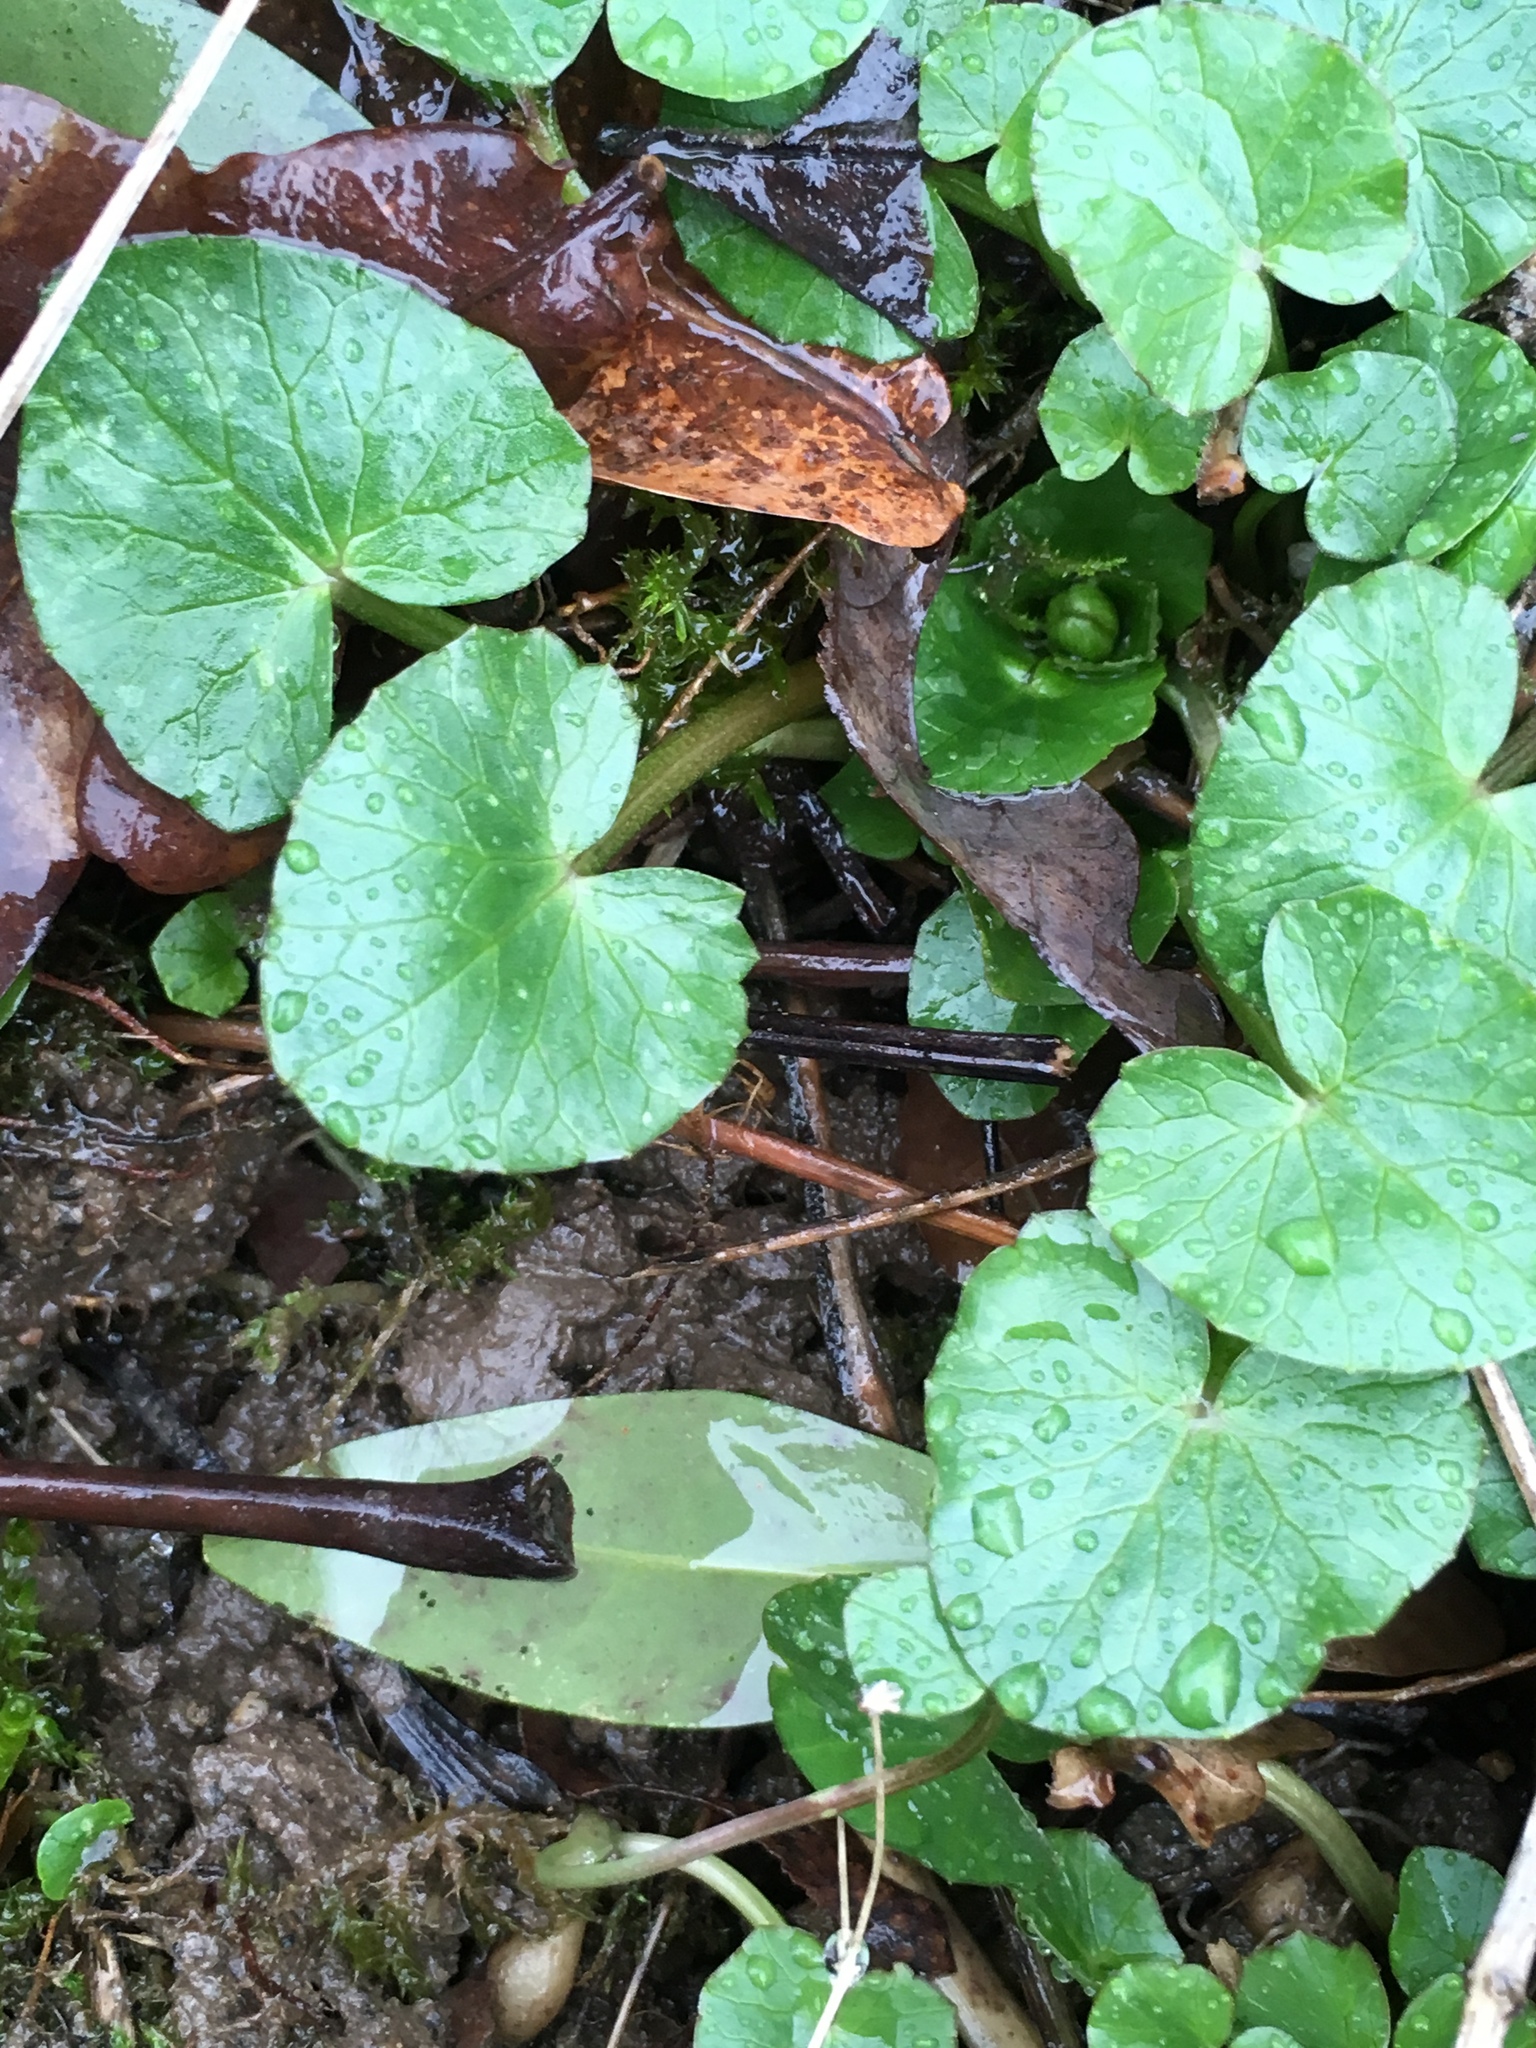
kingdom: Plantae
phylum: Tracheophyta
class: Magnoliopsida
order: Ranunculales
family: Ranunculaceae
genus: Ficaria
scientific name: Ficaria verna
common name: Lesser celandine
